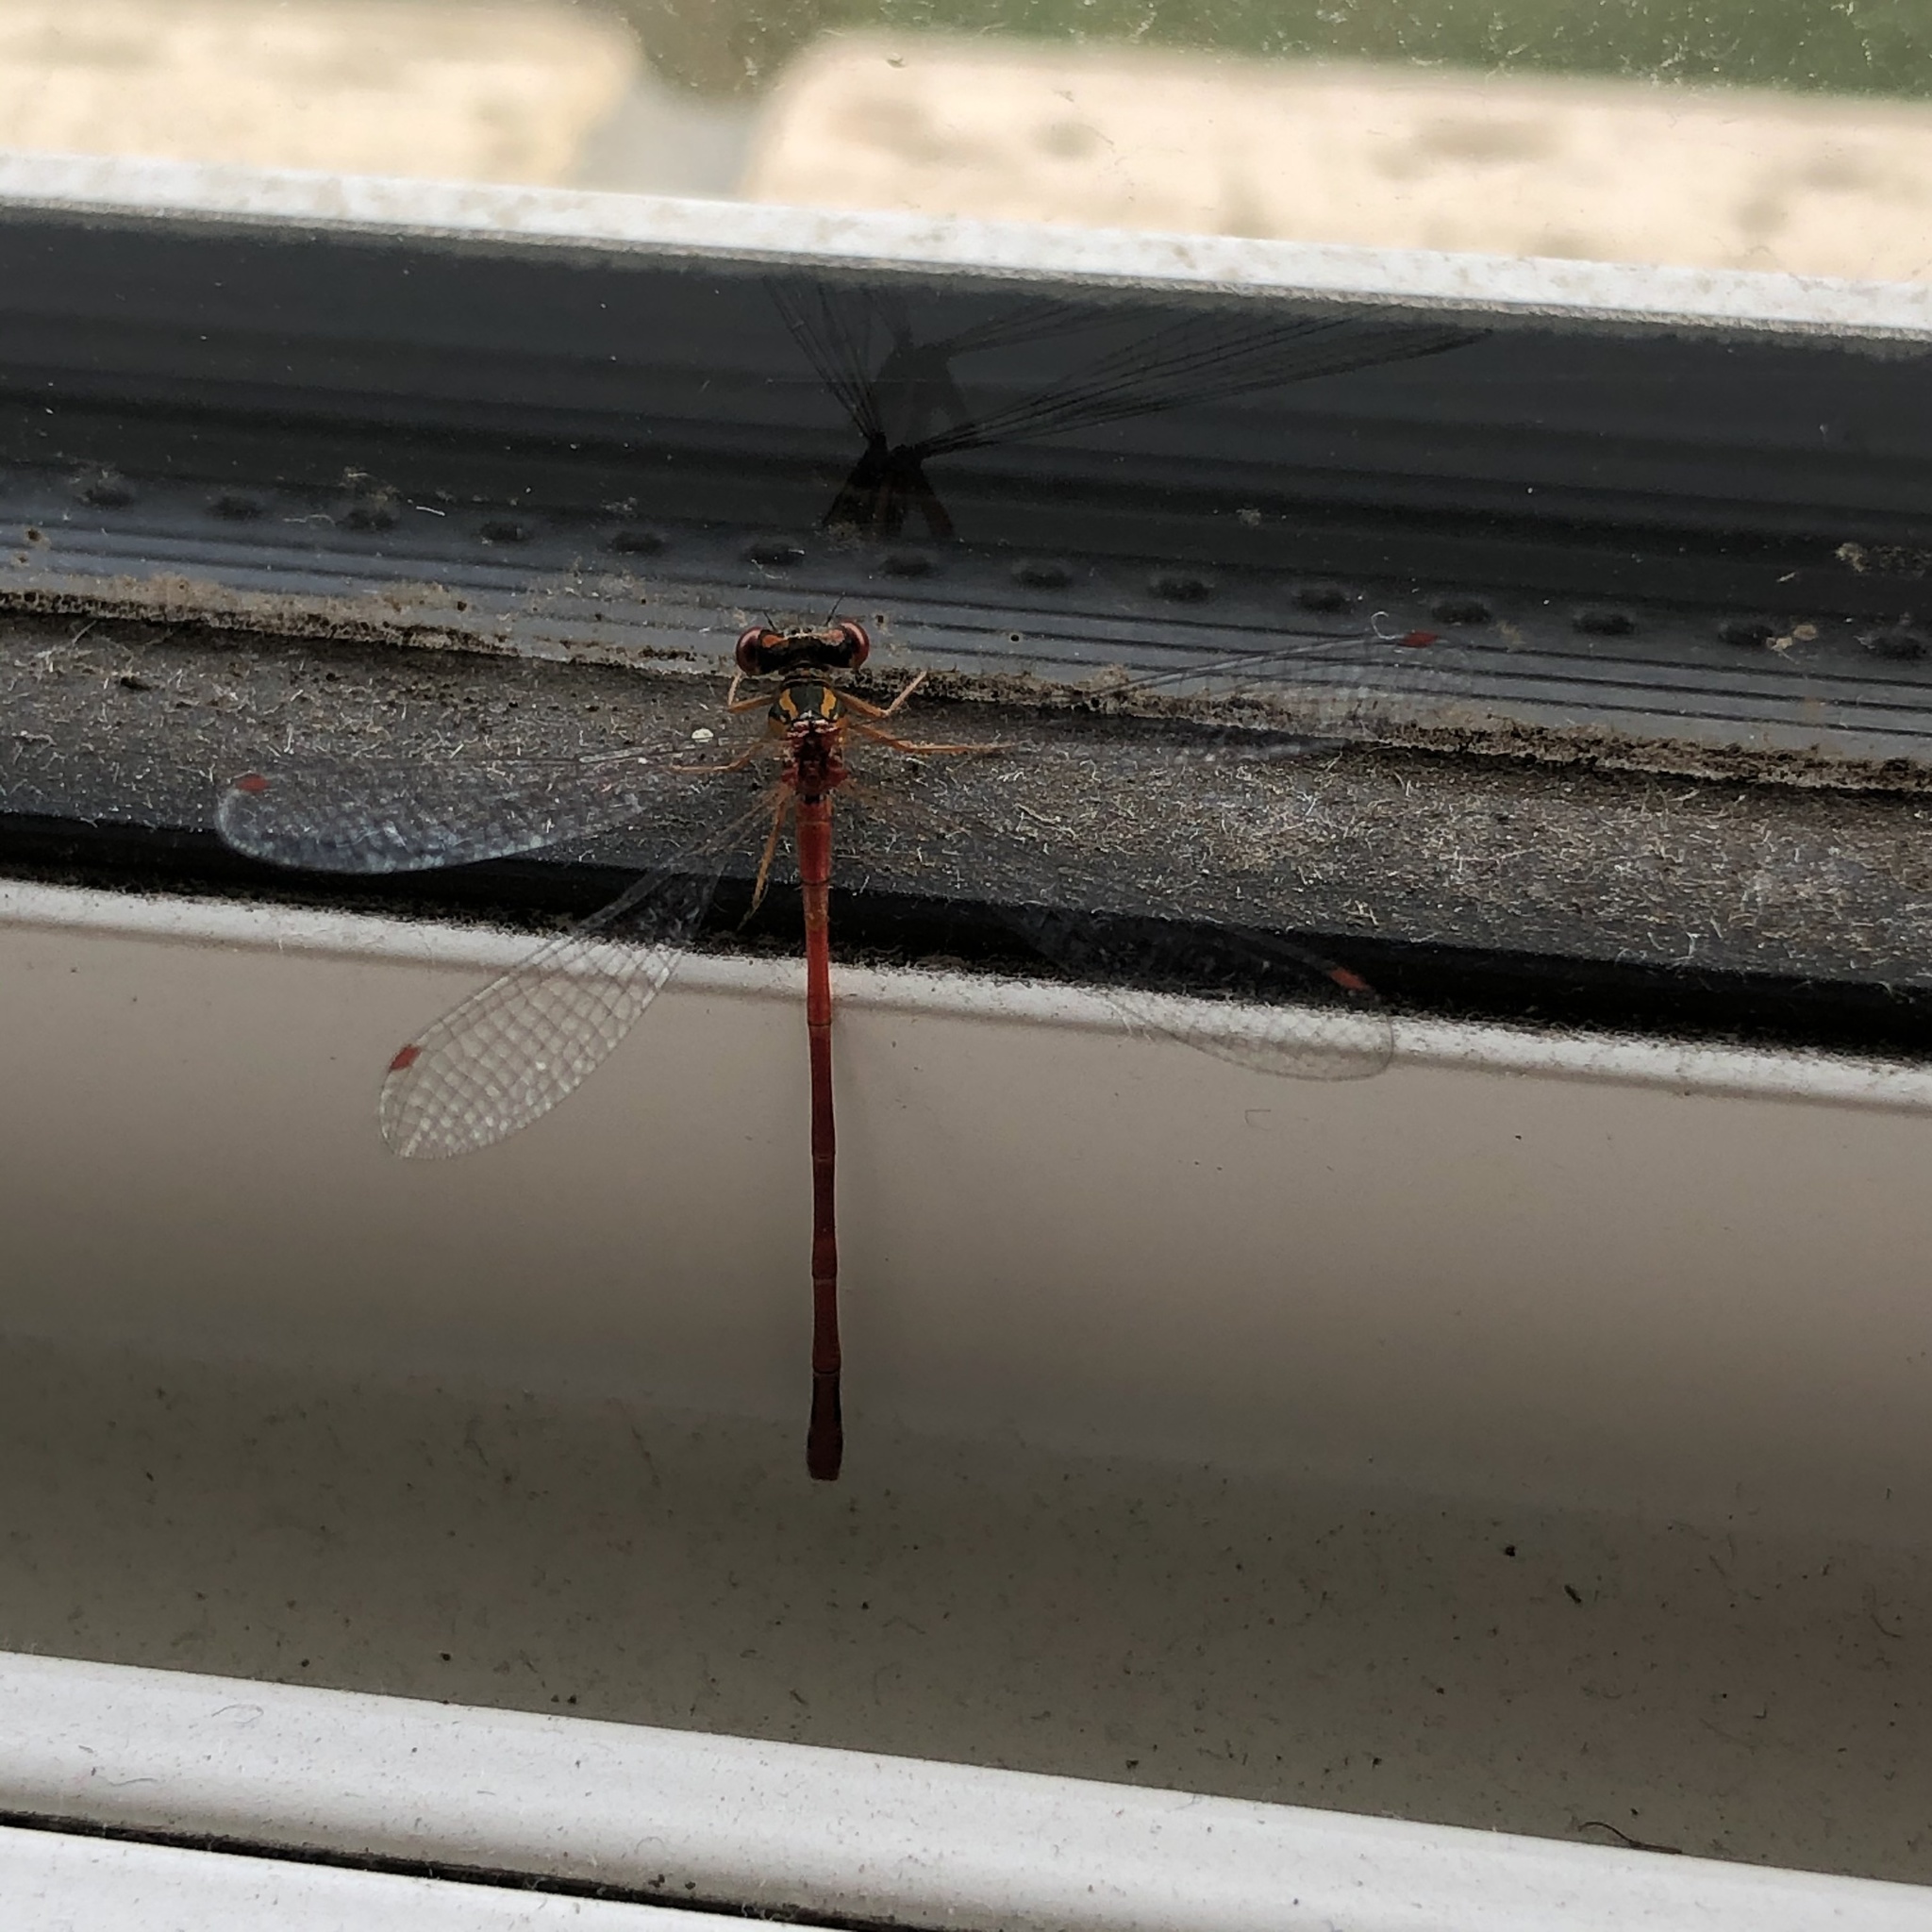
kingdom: Animalia
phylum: Arthropoda
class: Insecta
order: Odonata
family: Coenagrionidae
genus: Xanthocnemis
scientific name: Xanthocnemis zealandica
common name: Common redcoat damselfly
